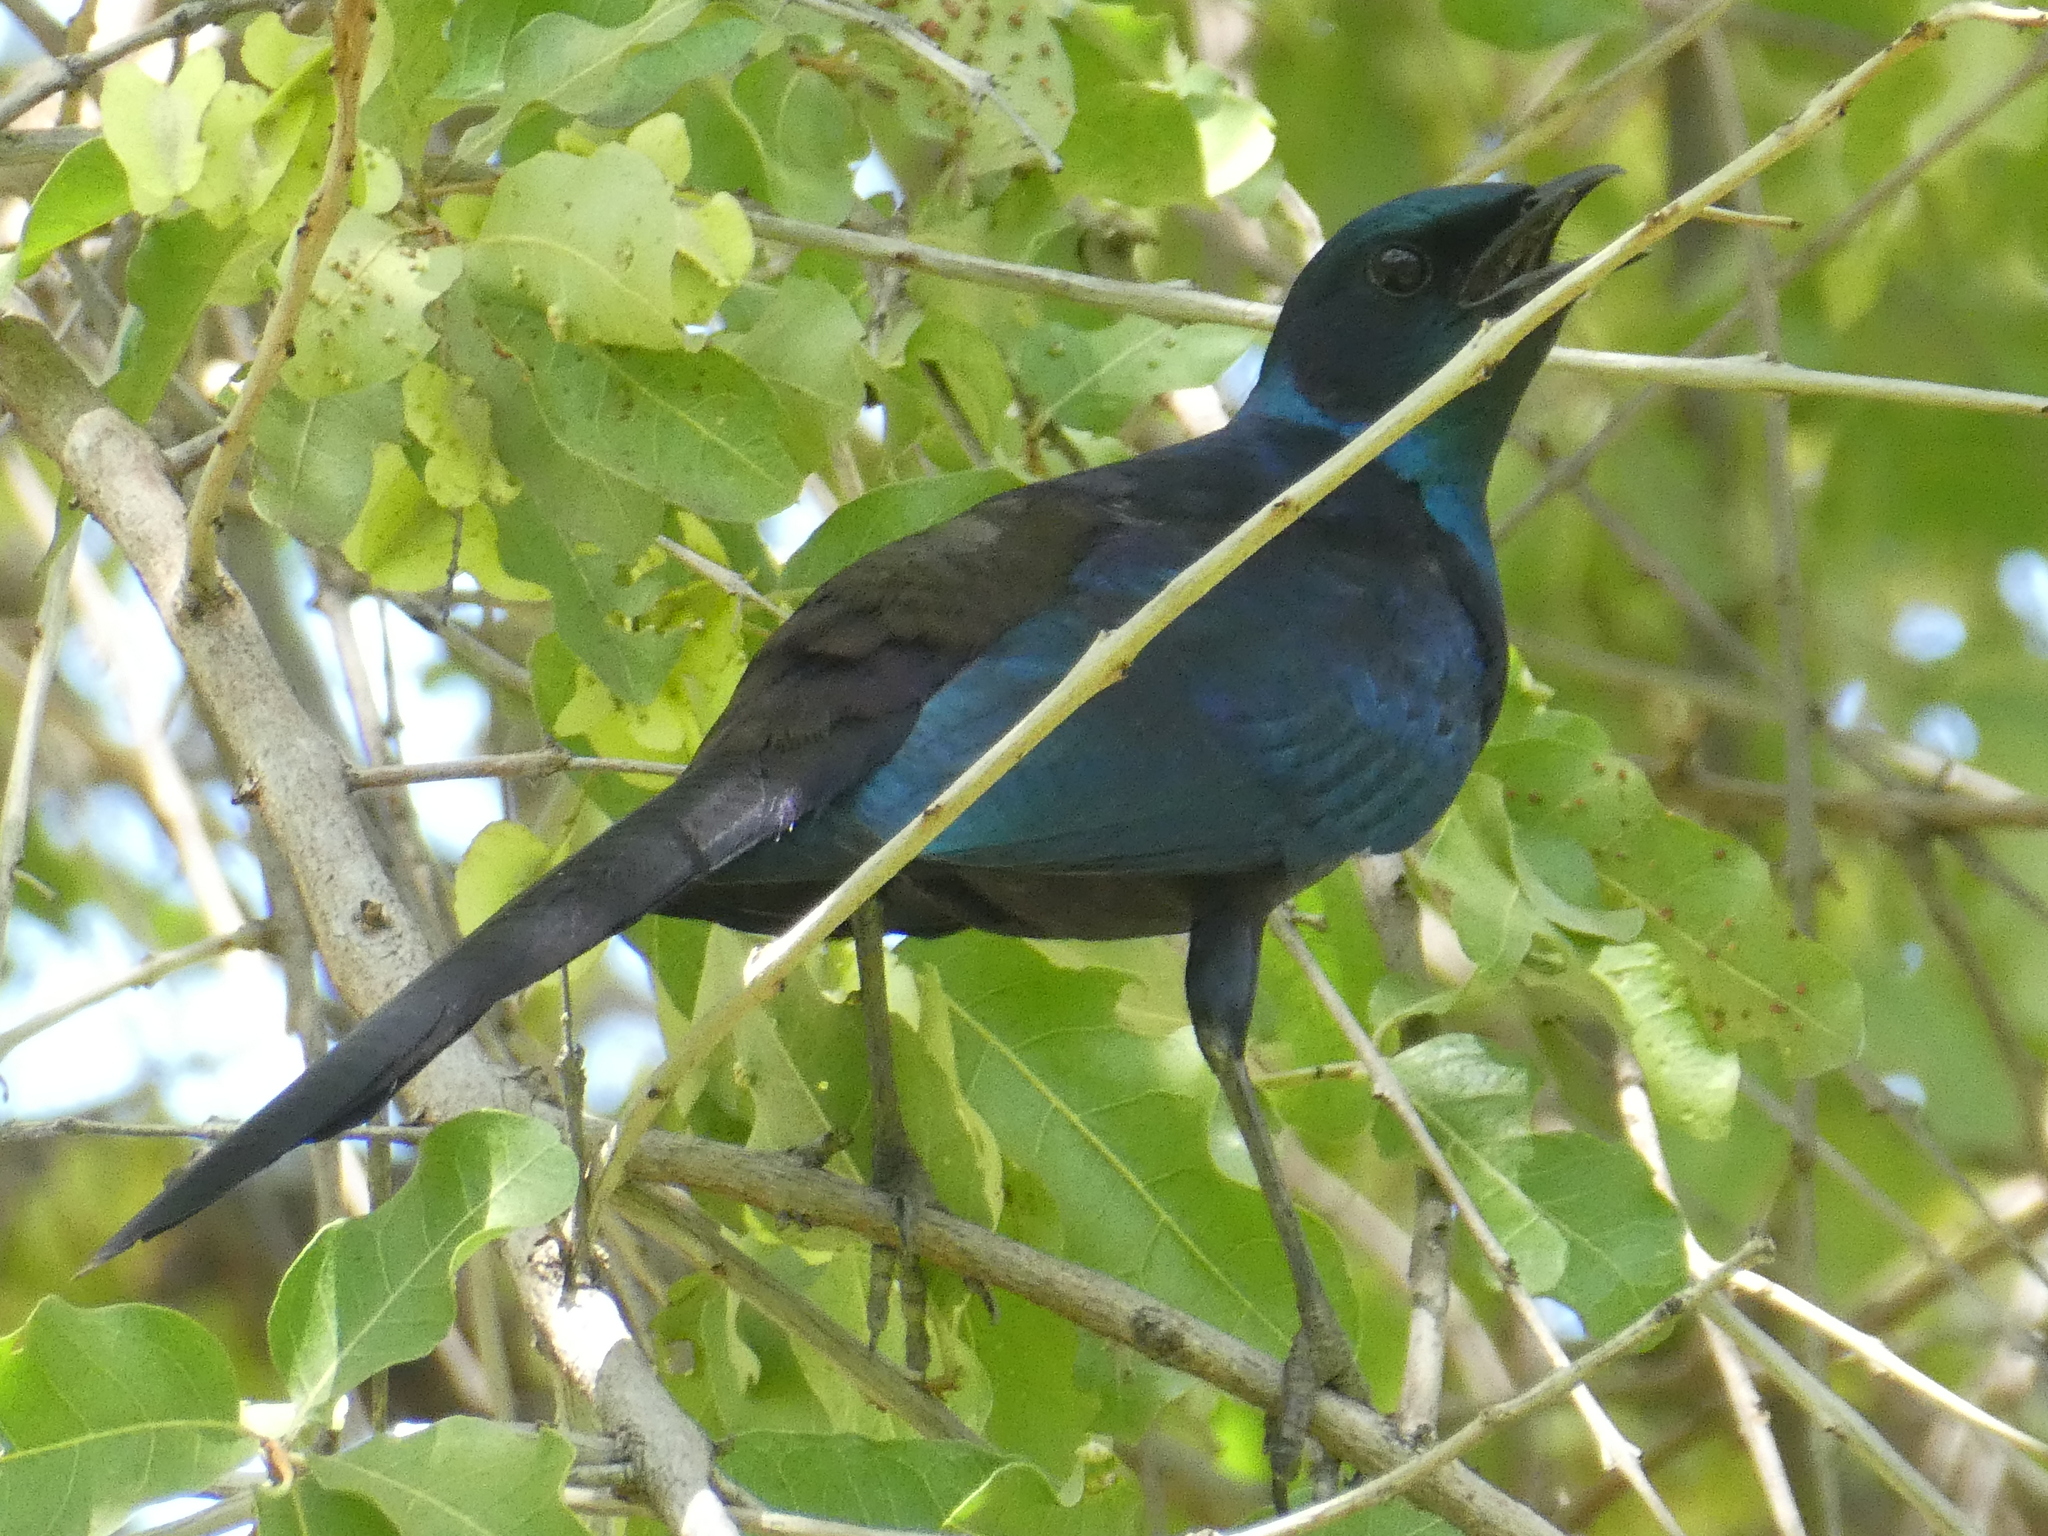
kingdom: Animalia
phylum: Chordata
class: Aves
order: Passeriformes
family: Sturnidae
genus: Lamprotornis
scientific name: Lamprotornis mevesii
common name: Meves's starling
